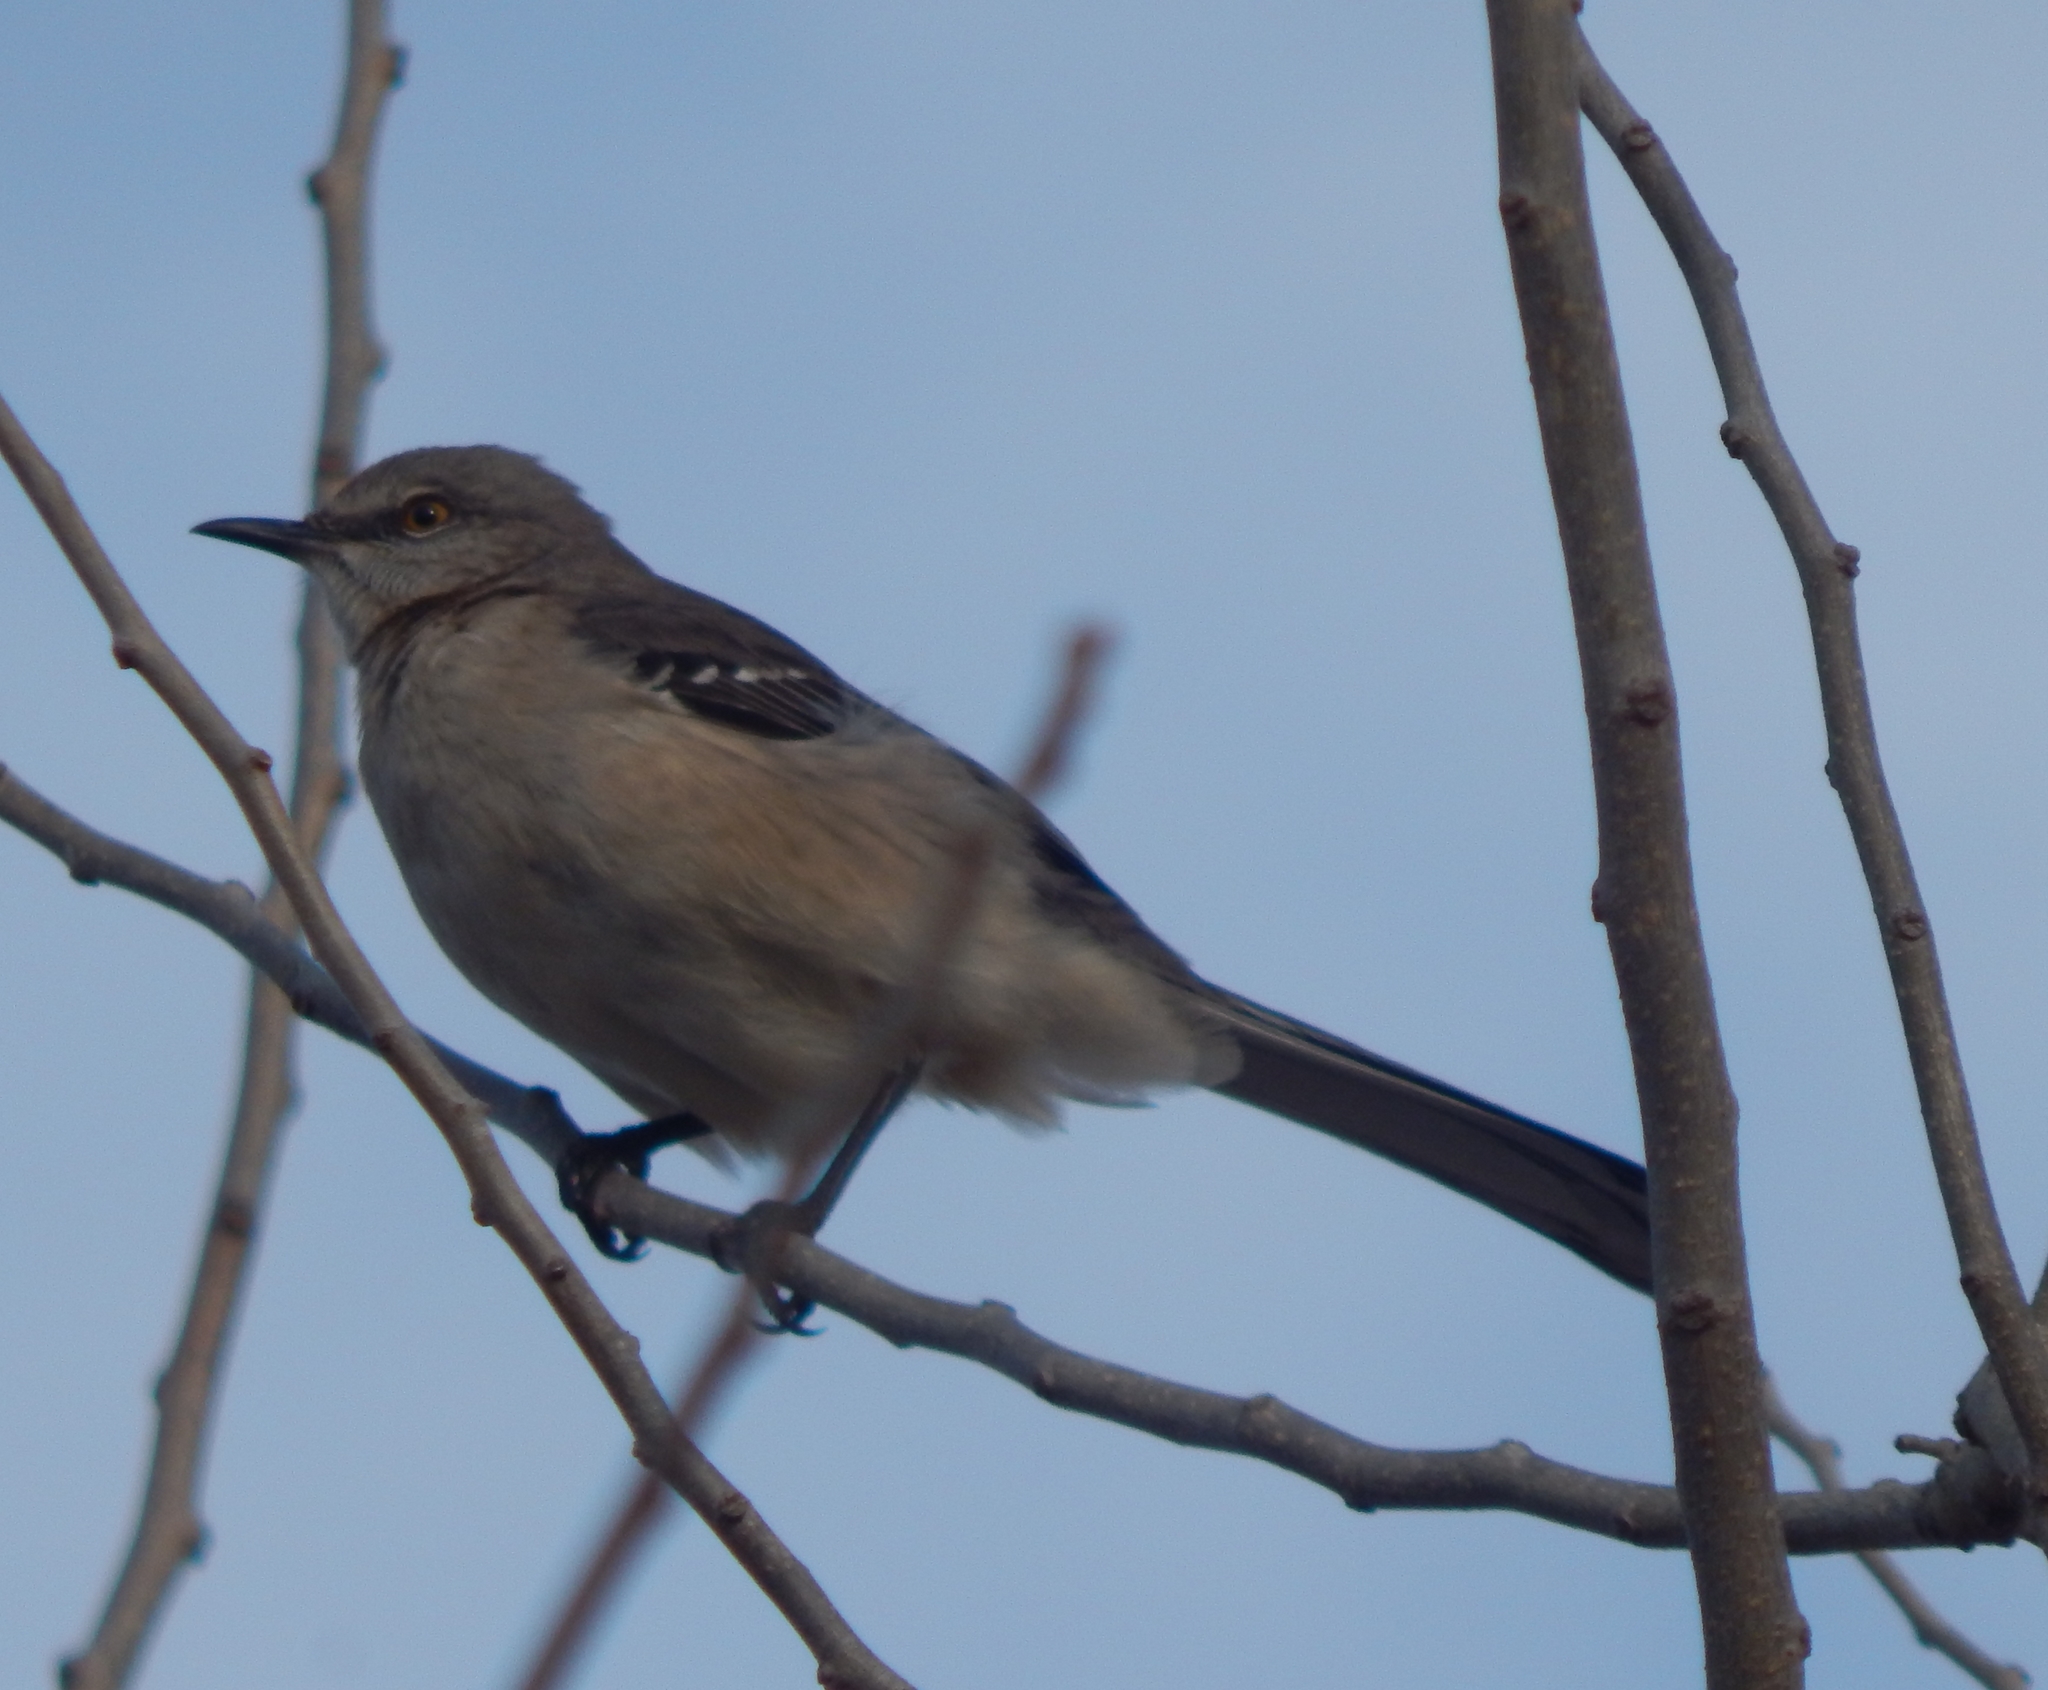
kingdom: Animalia
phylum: Chordata
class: Aves
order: Passeriformes
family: Mimidae
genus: Mimus
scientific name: Mimus polyglottos
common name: Northern mockingbird
